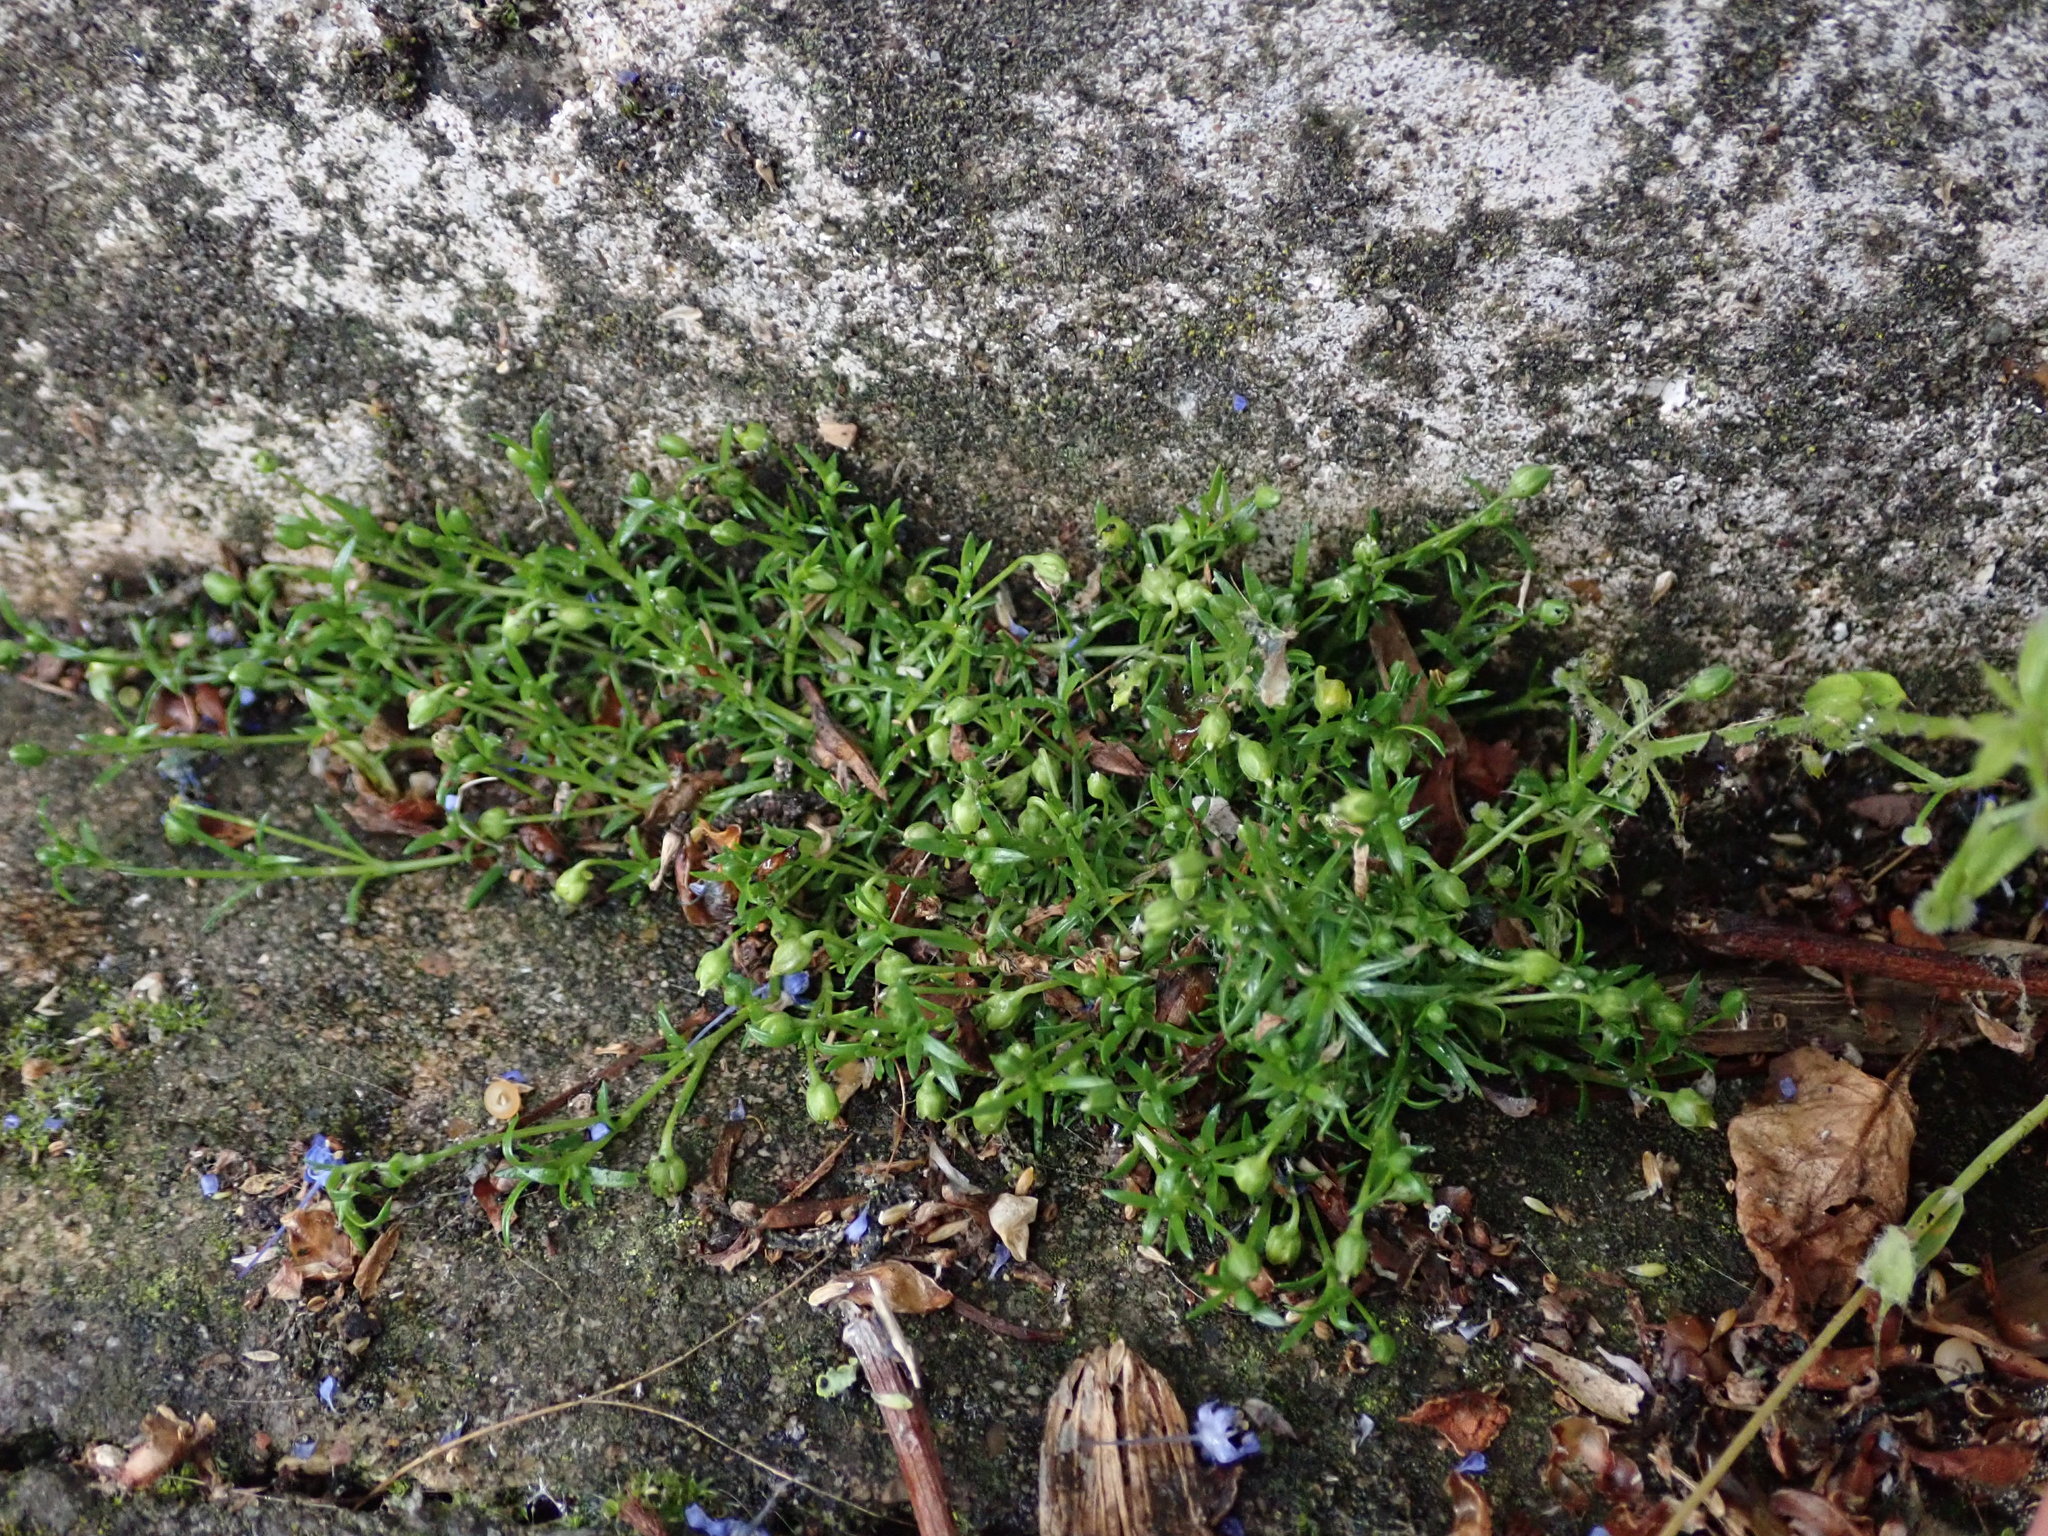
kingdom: Plantae
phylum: Tracheophyta
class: Magnoliopsida
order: Caryophyllales
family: Caryophyllaceae
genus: Sagina
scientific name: Sagina procumbens
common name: Procumbent pearlwort
